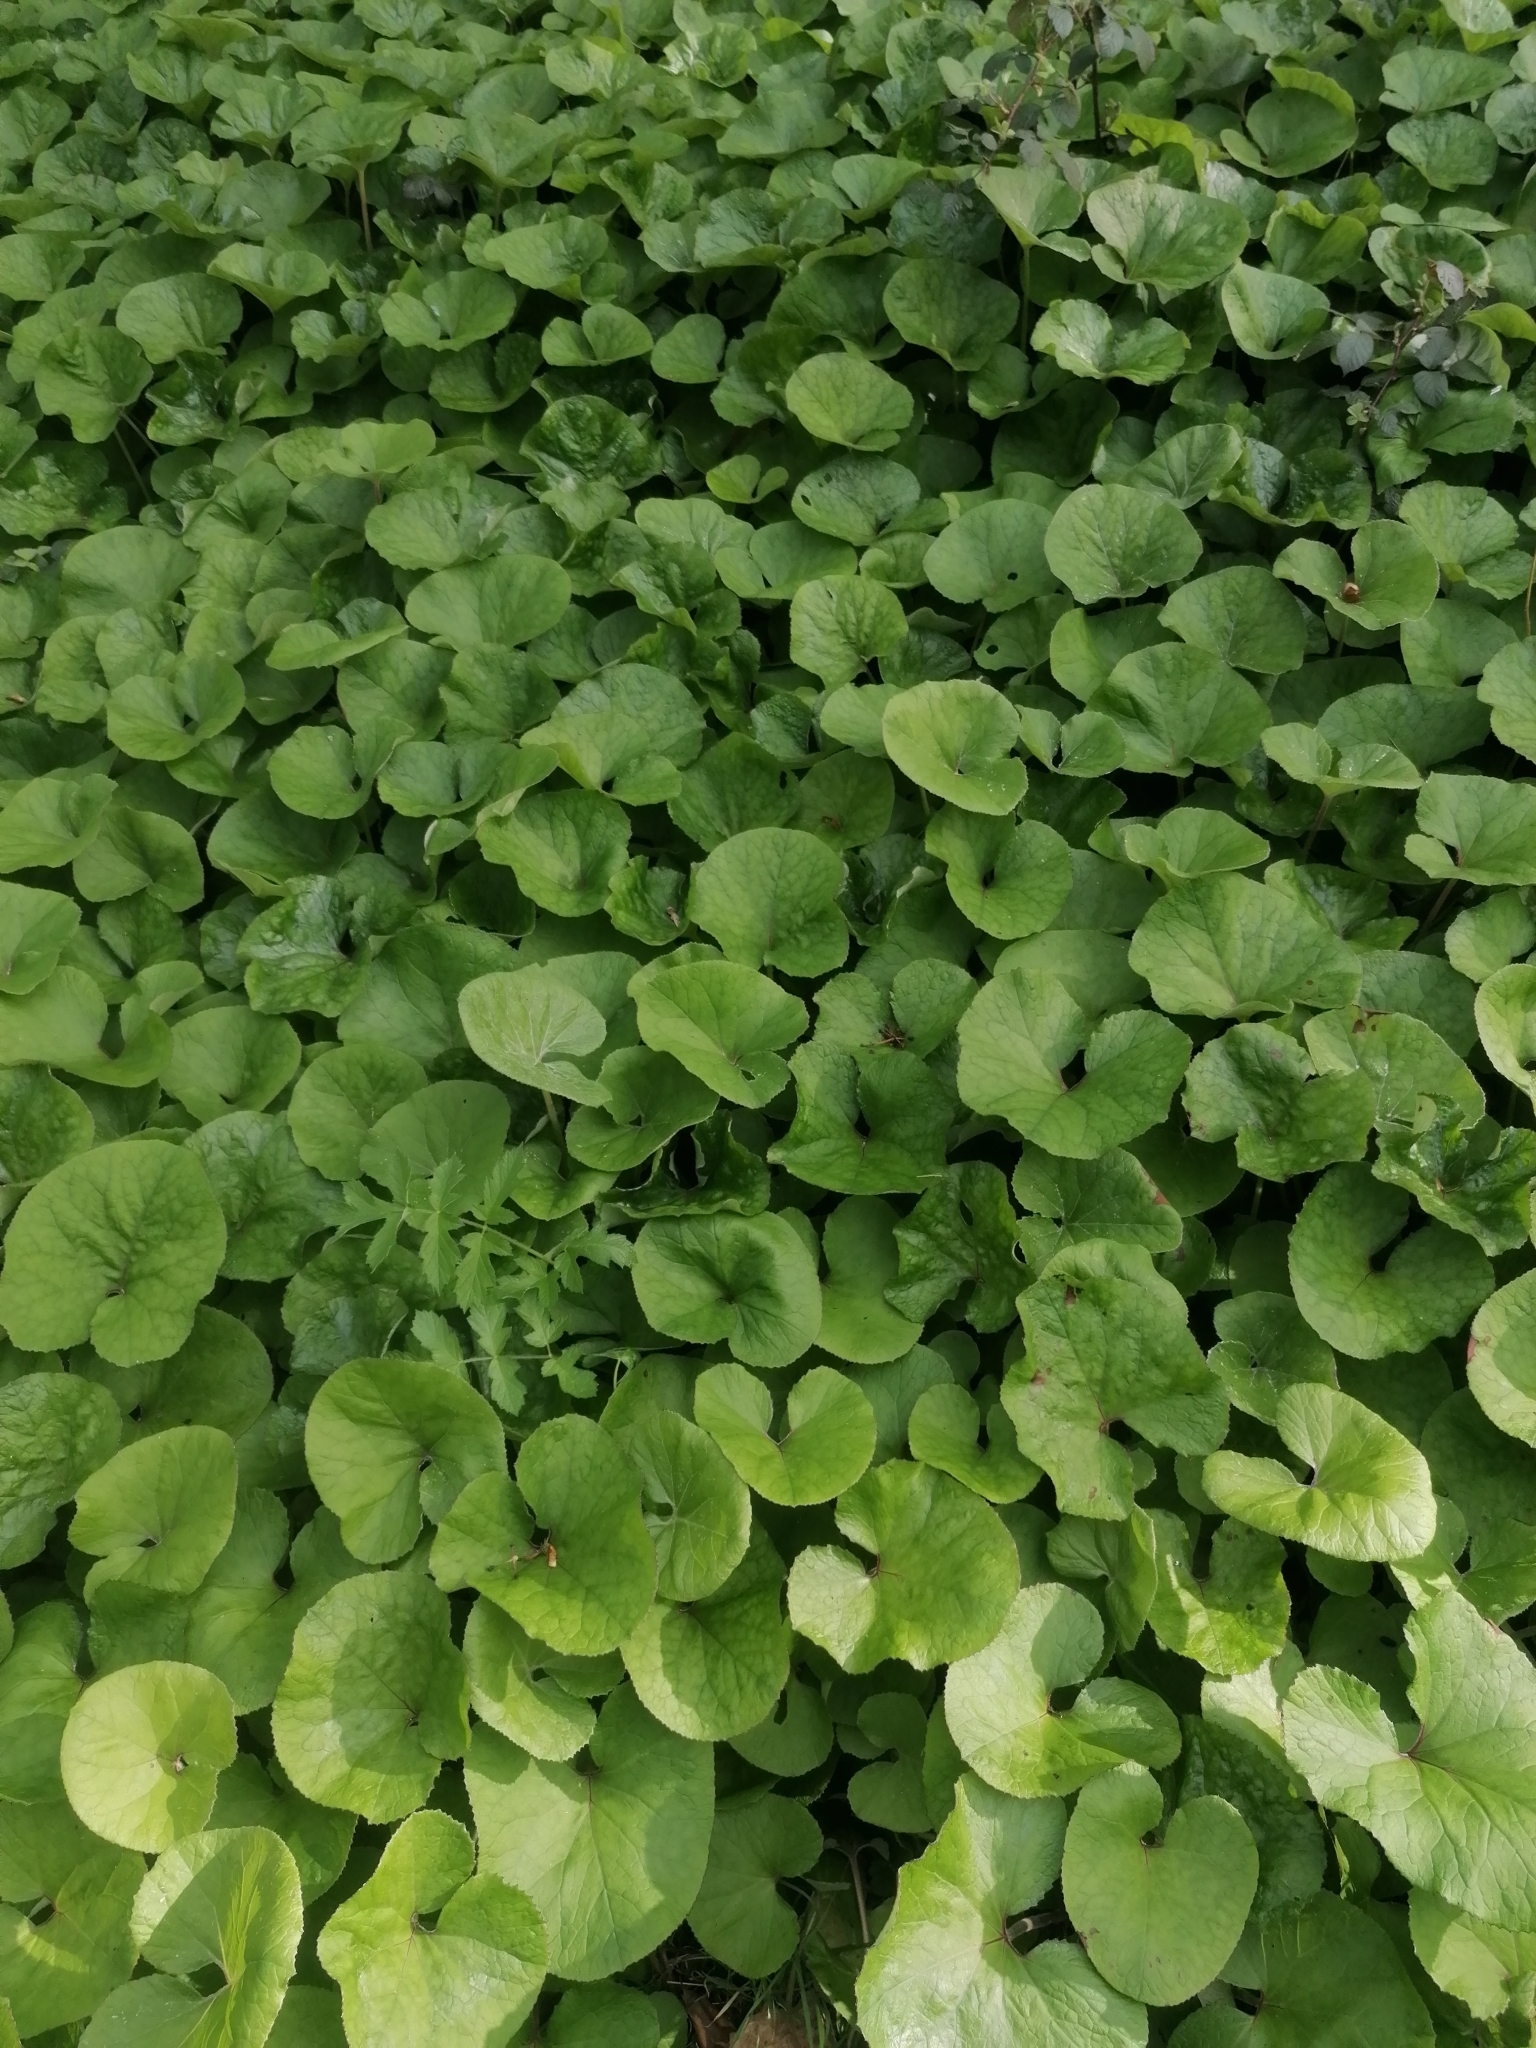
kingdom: Plantae
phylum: Tracheophyta
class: Magnoliopsida
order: Asterales
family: Asteraceae
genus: Petasites
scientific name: Petasites pyrenaicus
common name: Winter heliotrope
